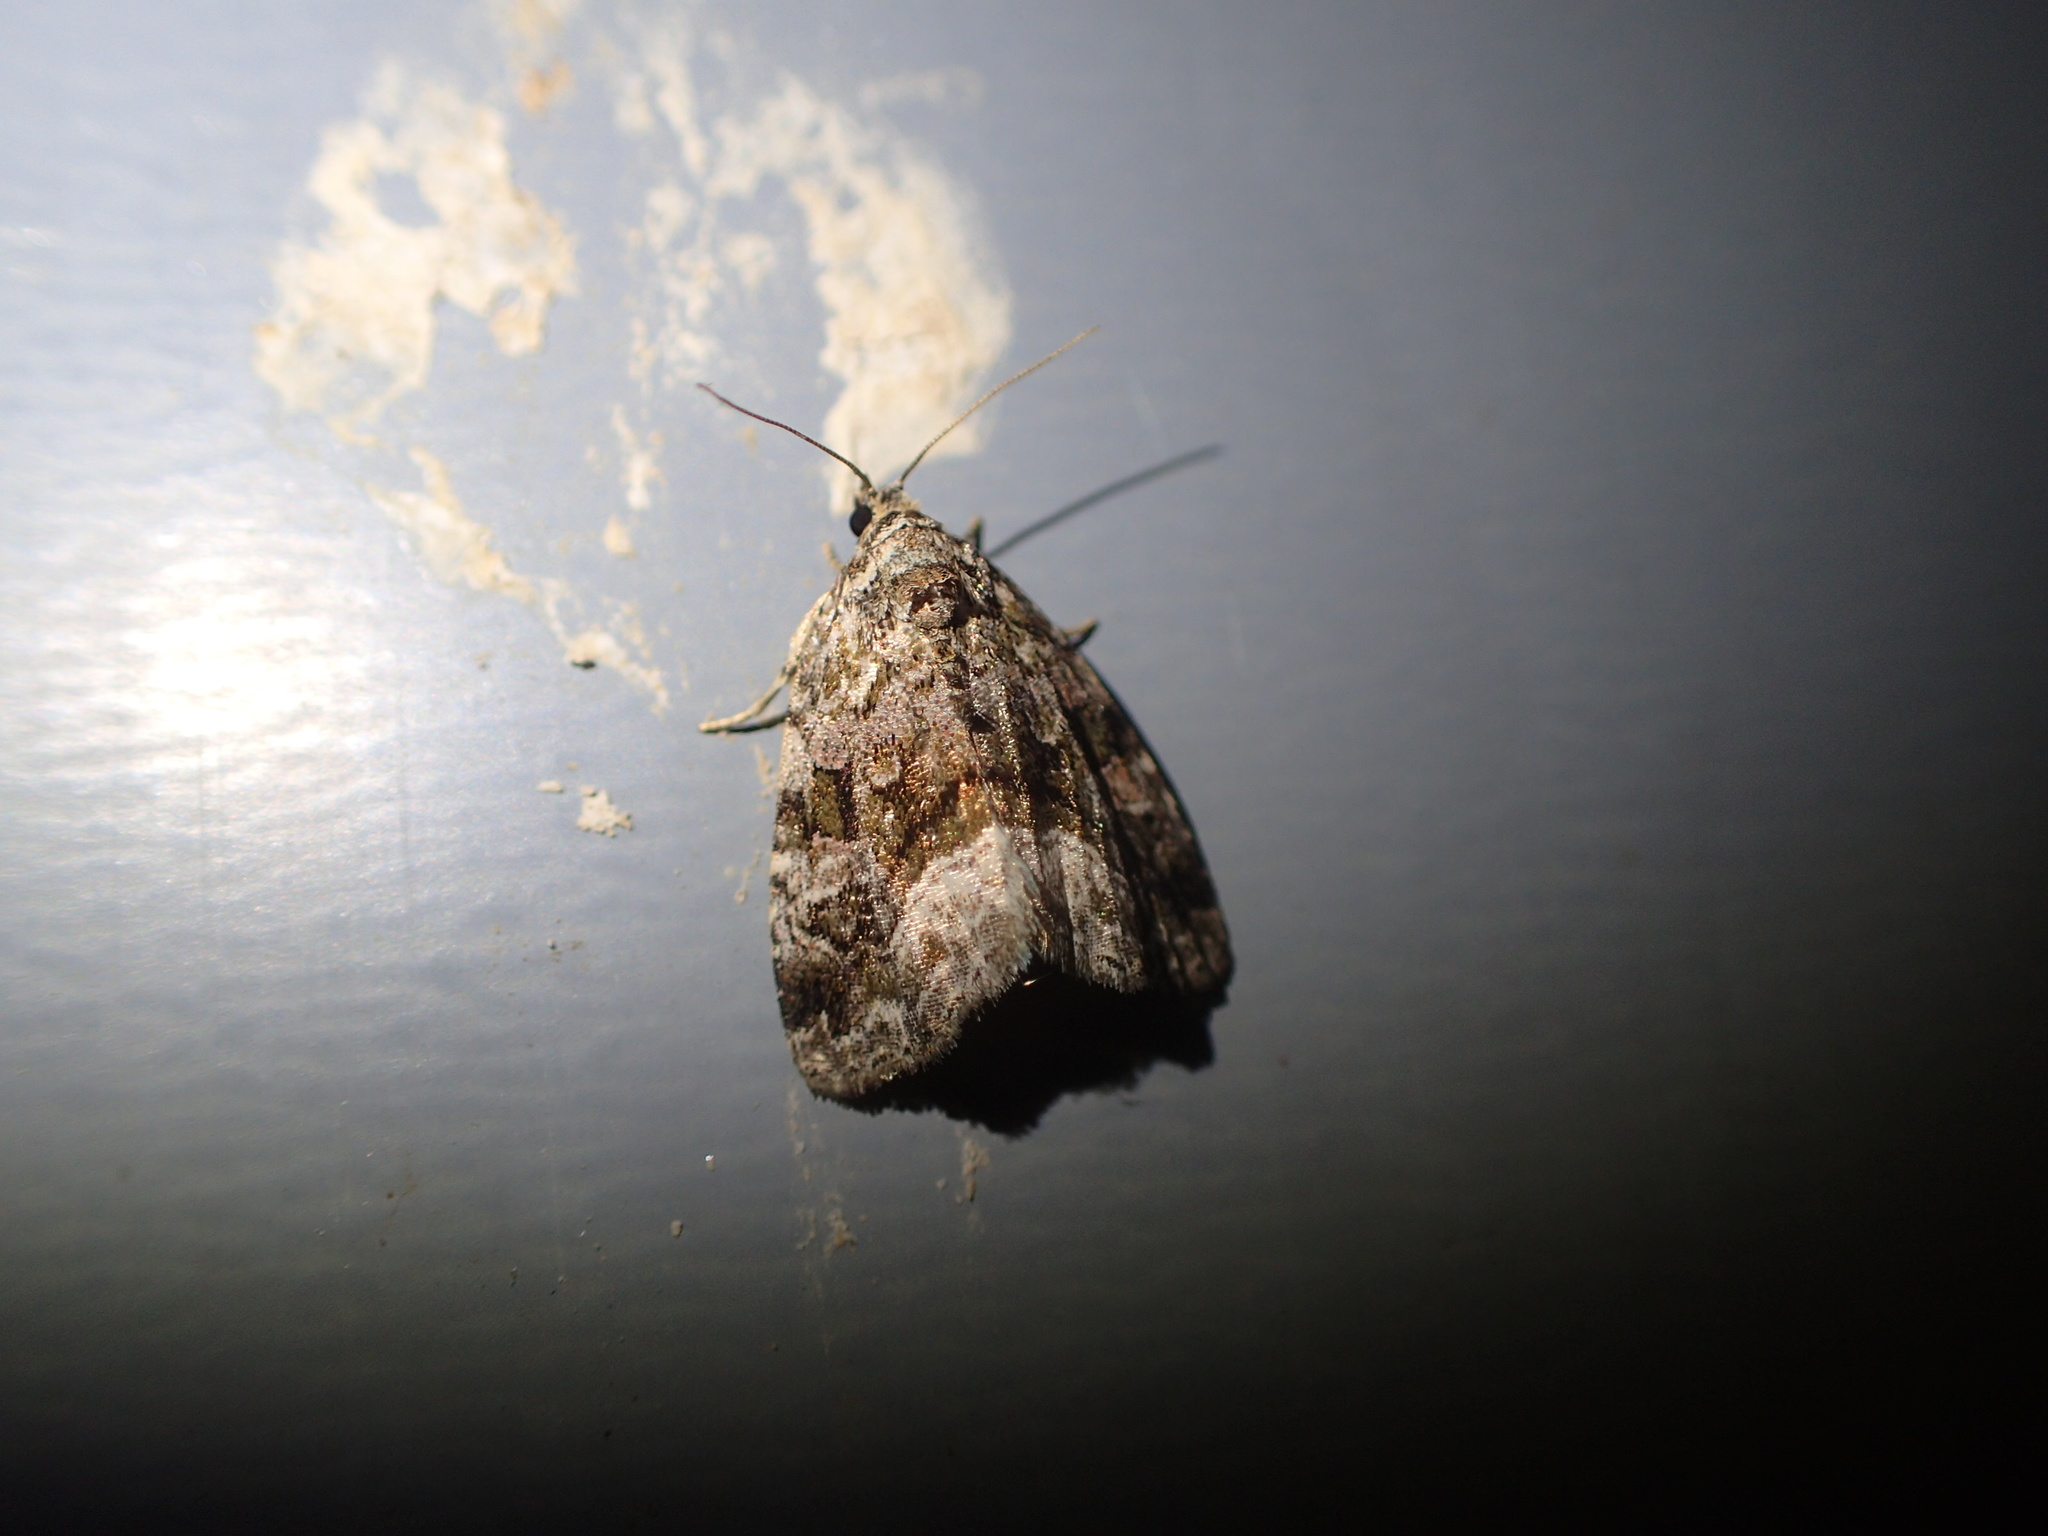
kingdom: Animalia
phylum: Arthropoda
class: Insecta
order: Lepidoptera
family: Noctuidae
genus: Protodeltote
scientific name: Protodeltote muscosula
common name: Large mossy glyph
